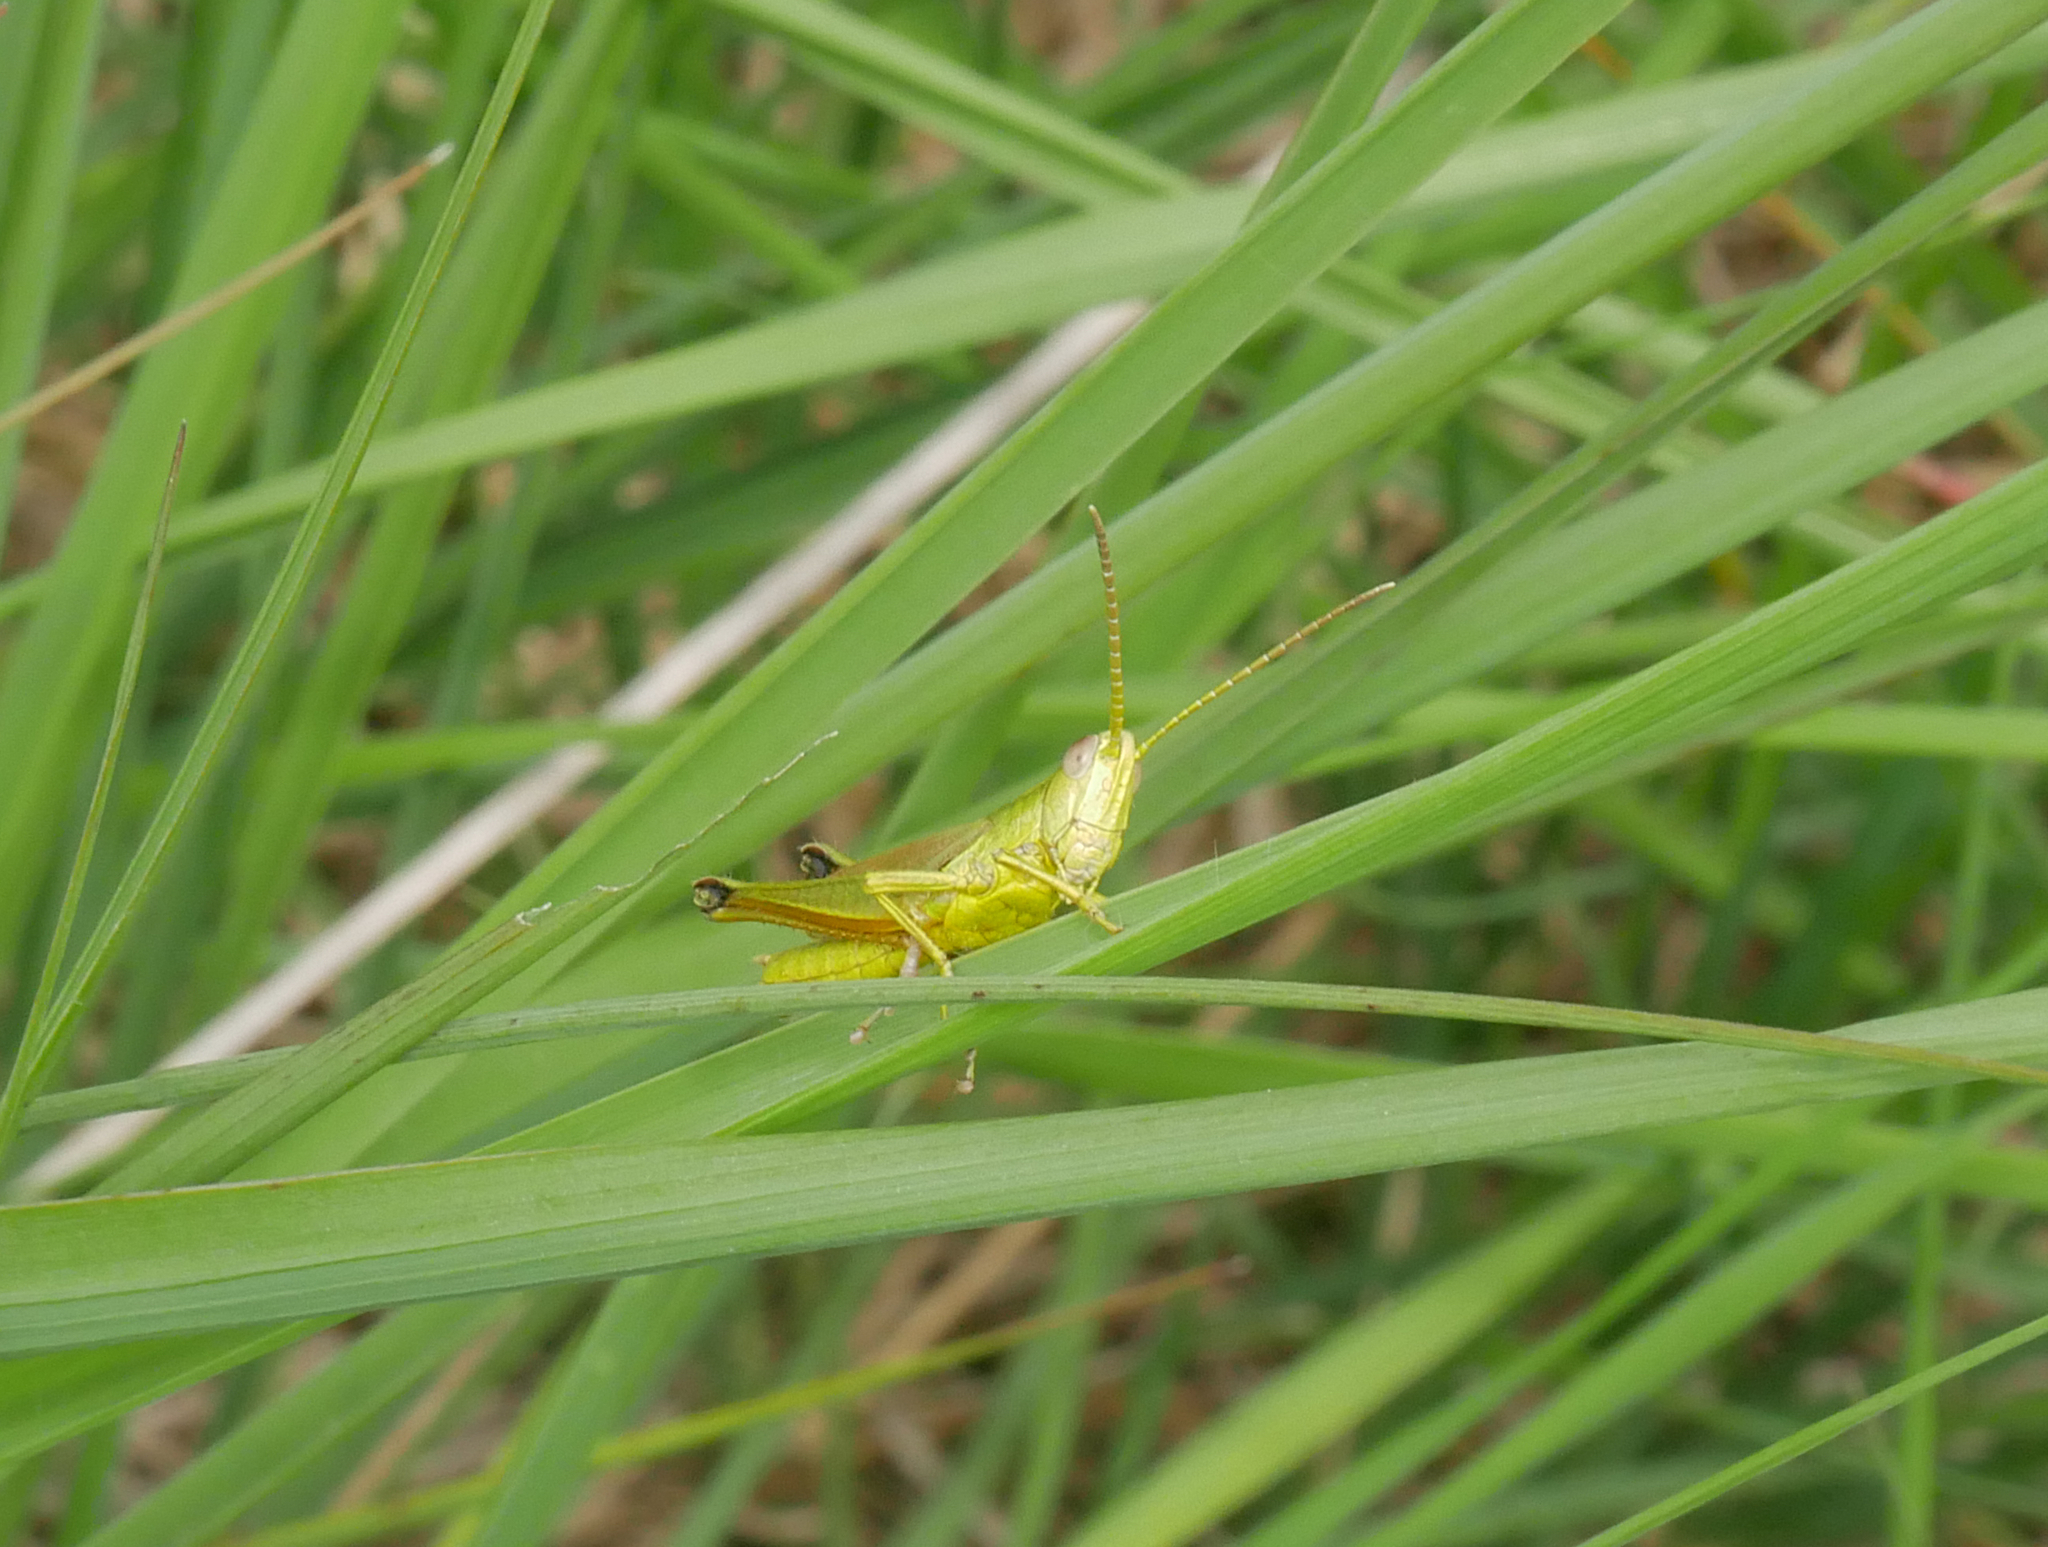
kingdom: Animalia
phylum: Arthropoda
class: Insecta
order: Orthoptera
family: Acrididae
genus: Chrysochraon
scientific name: Chrysochraon dispar
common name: Large gold grasshopper
